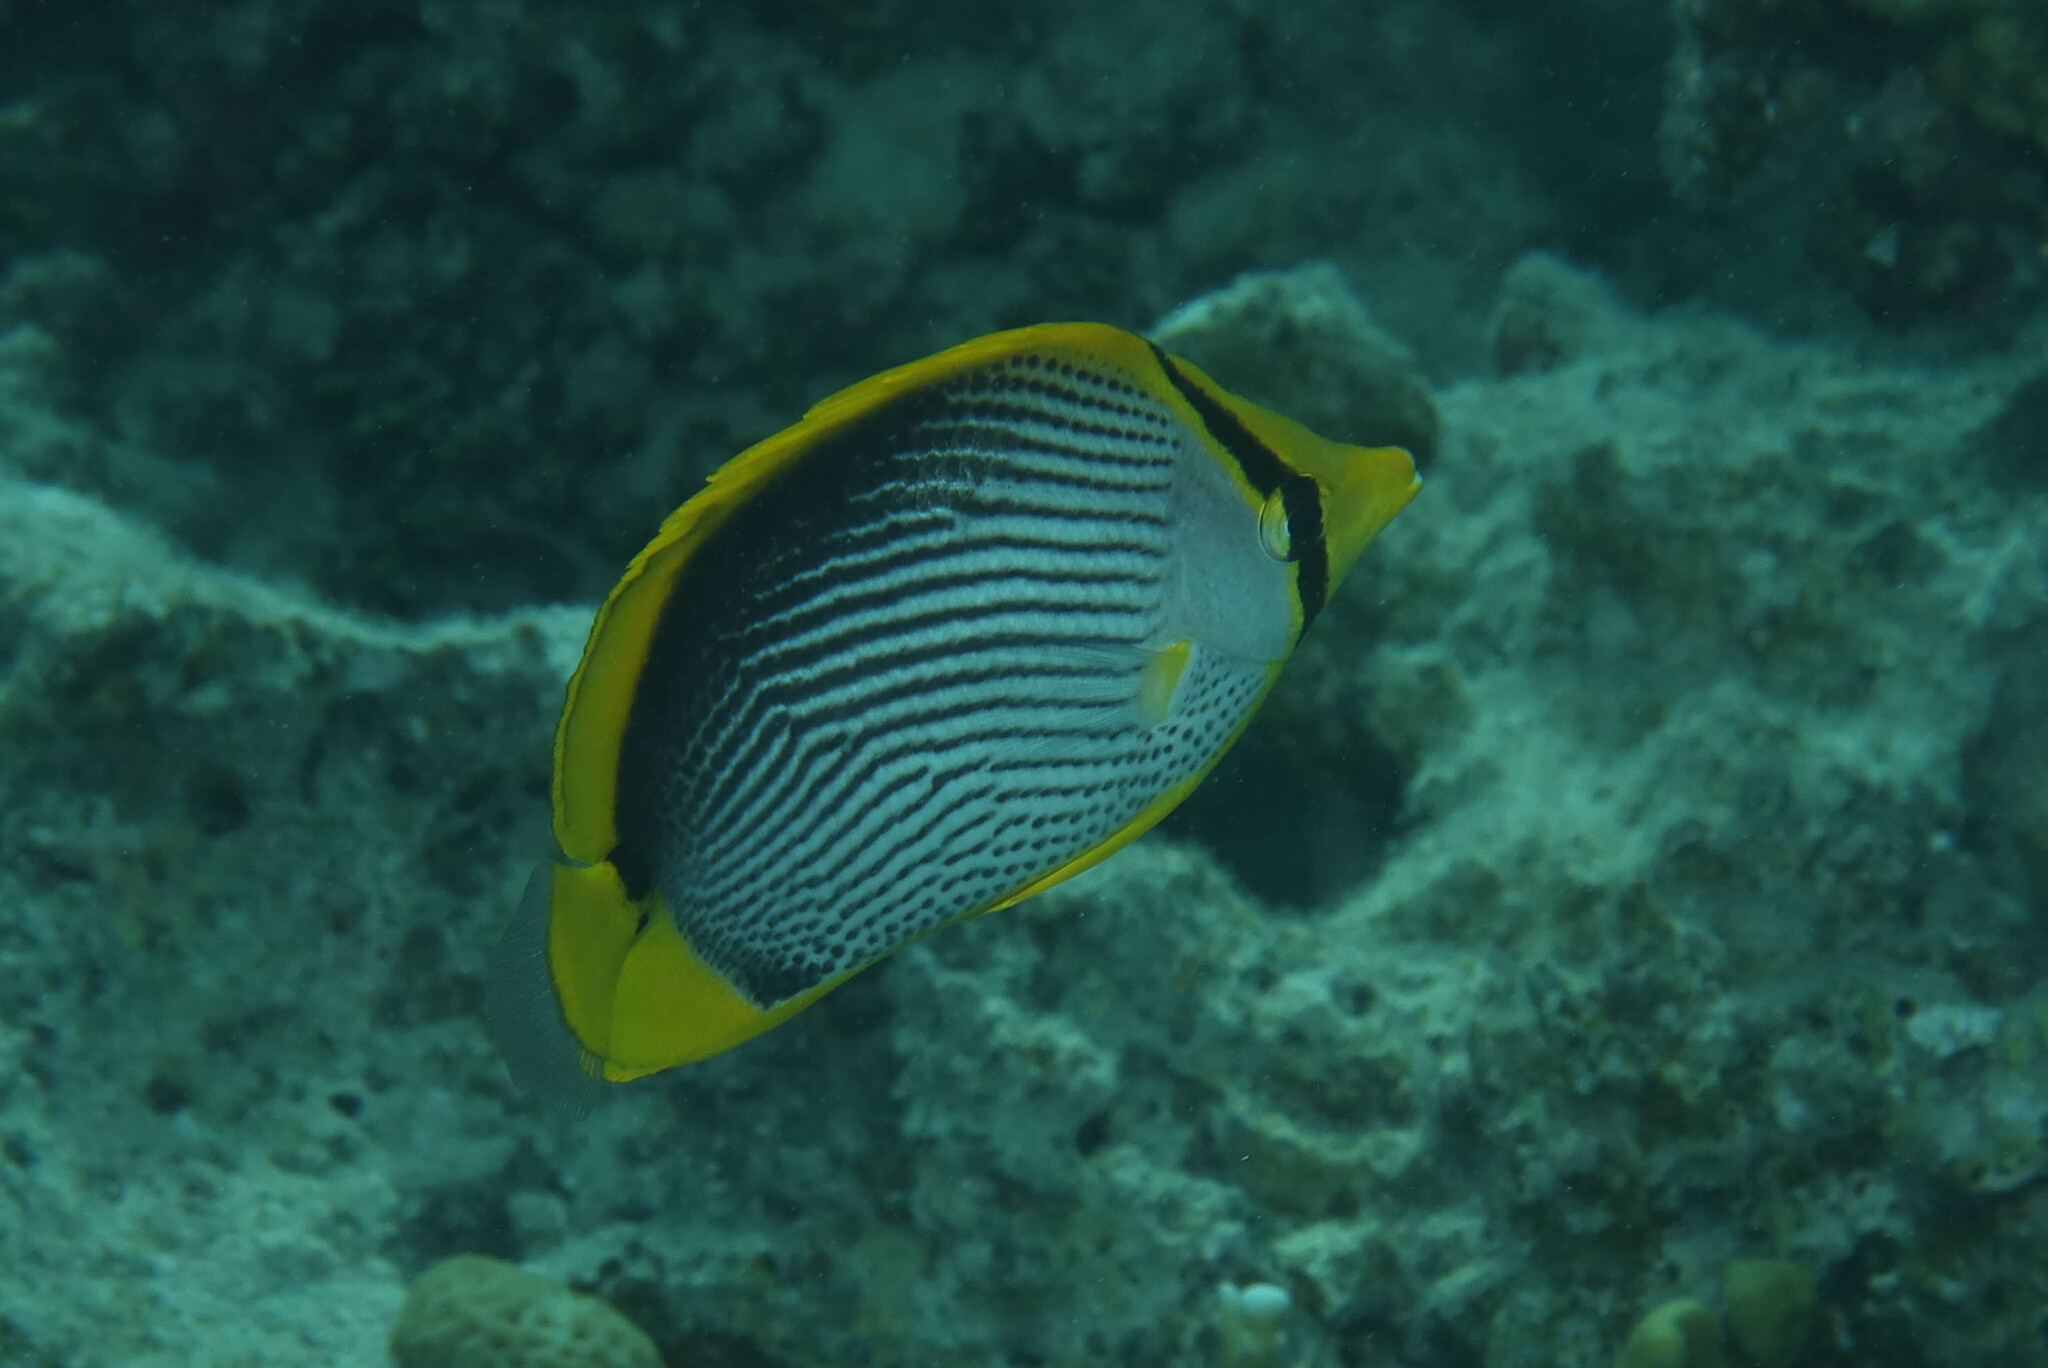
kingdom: Animalia
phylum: Chordata
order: Perciformes
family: Chaetodontidae
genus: Chaetodon
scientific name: Chaetodon melannotus
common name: Blackback butterflyfish
